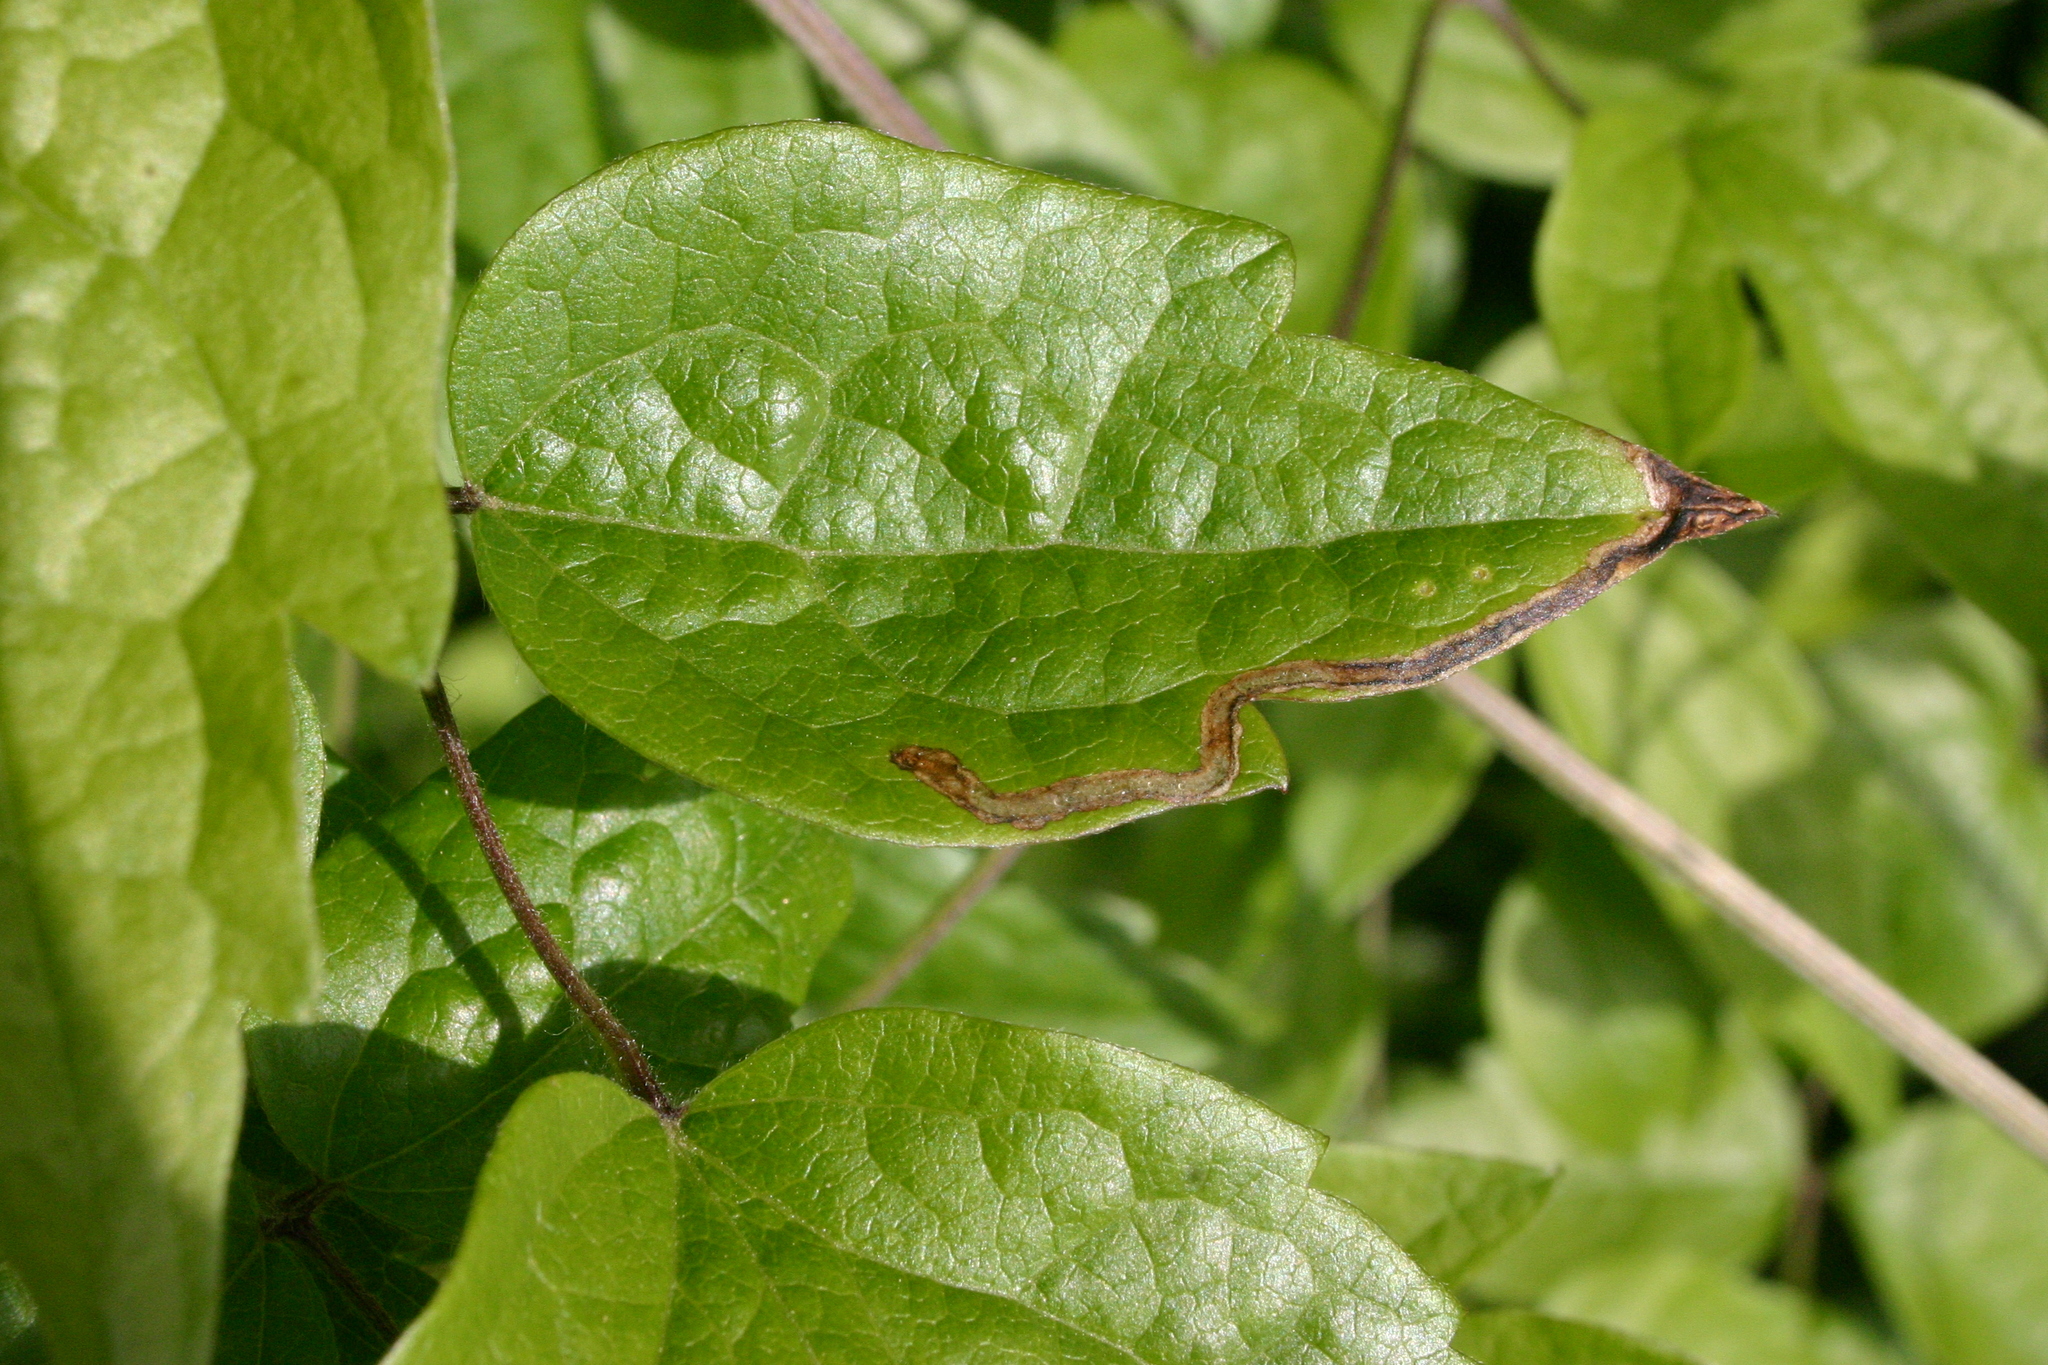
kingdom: Plantae
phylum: Tracheophyta
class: Magnoliopsida
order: Ranunculales
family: Ranunculaceae
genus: Clematis
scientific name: Clematis vitalba
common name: Evergreen clematis
